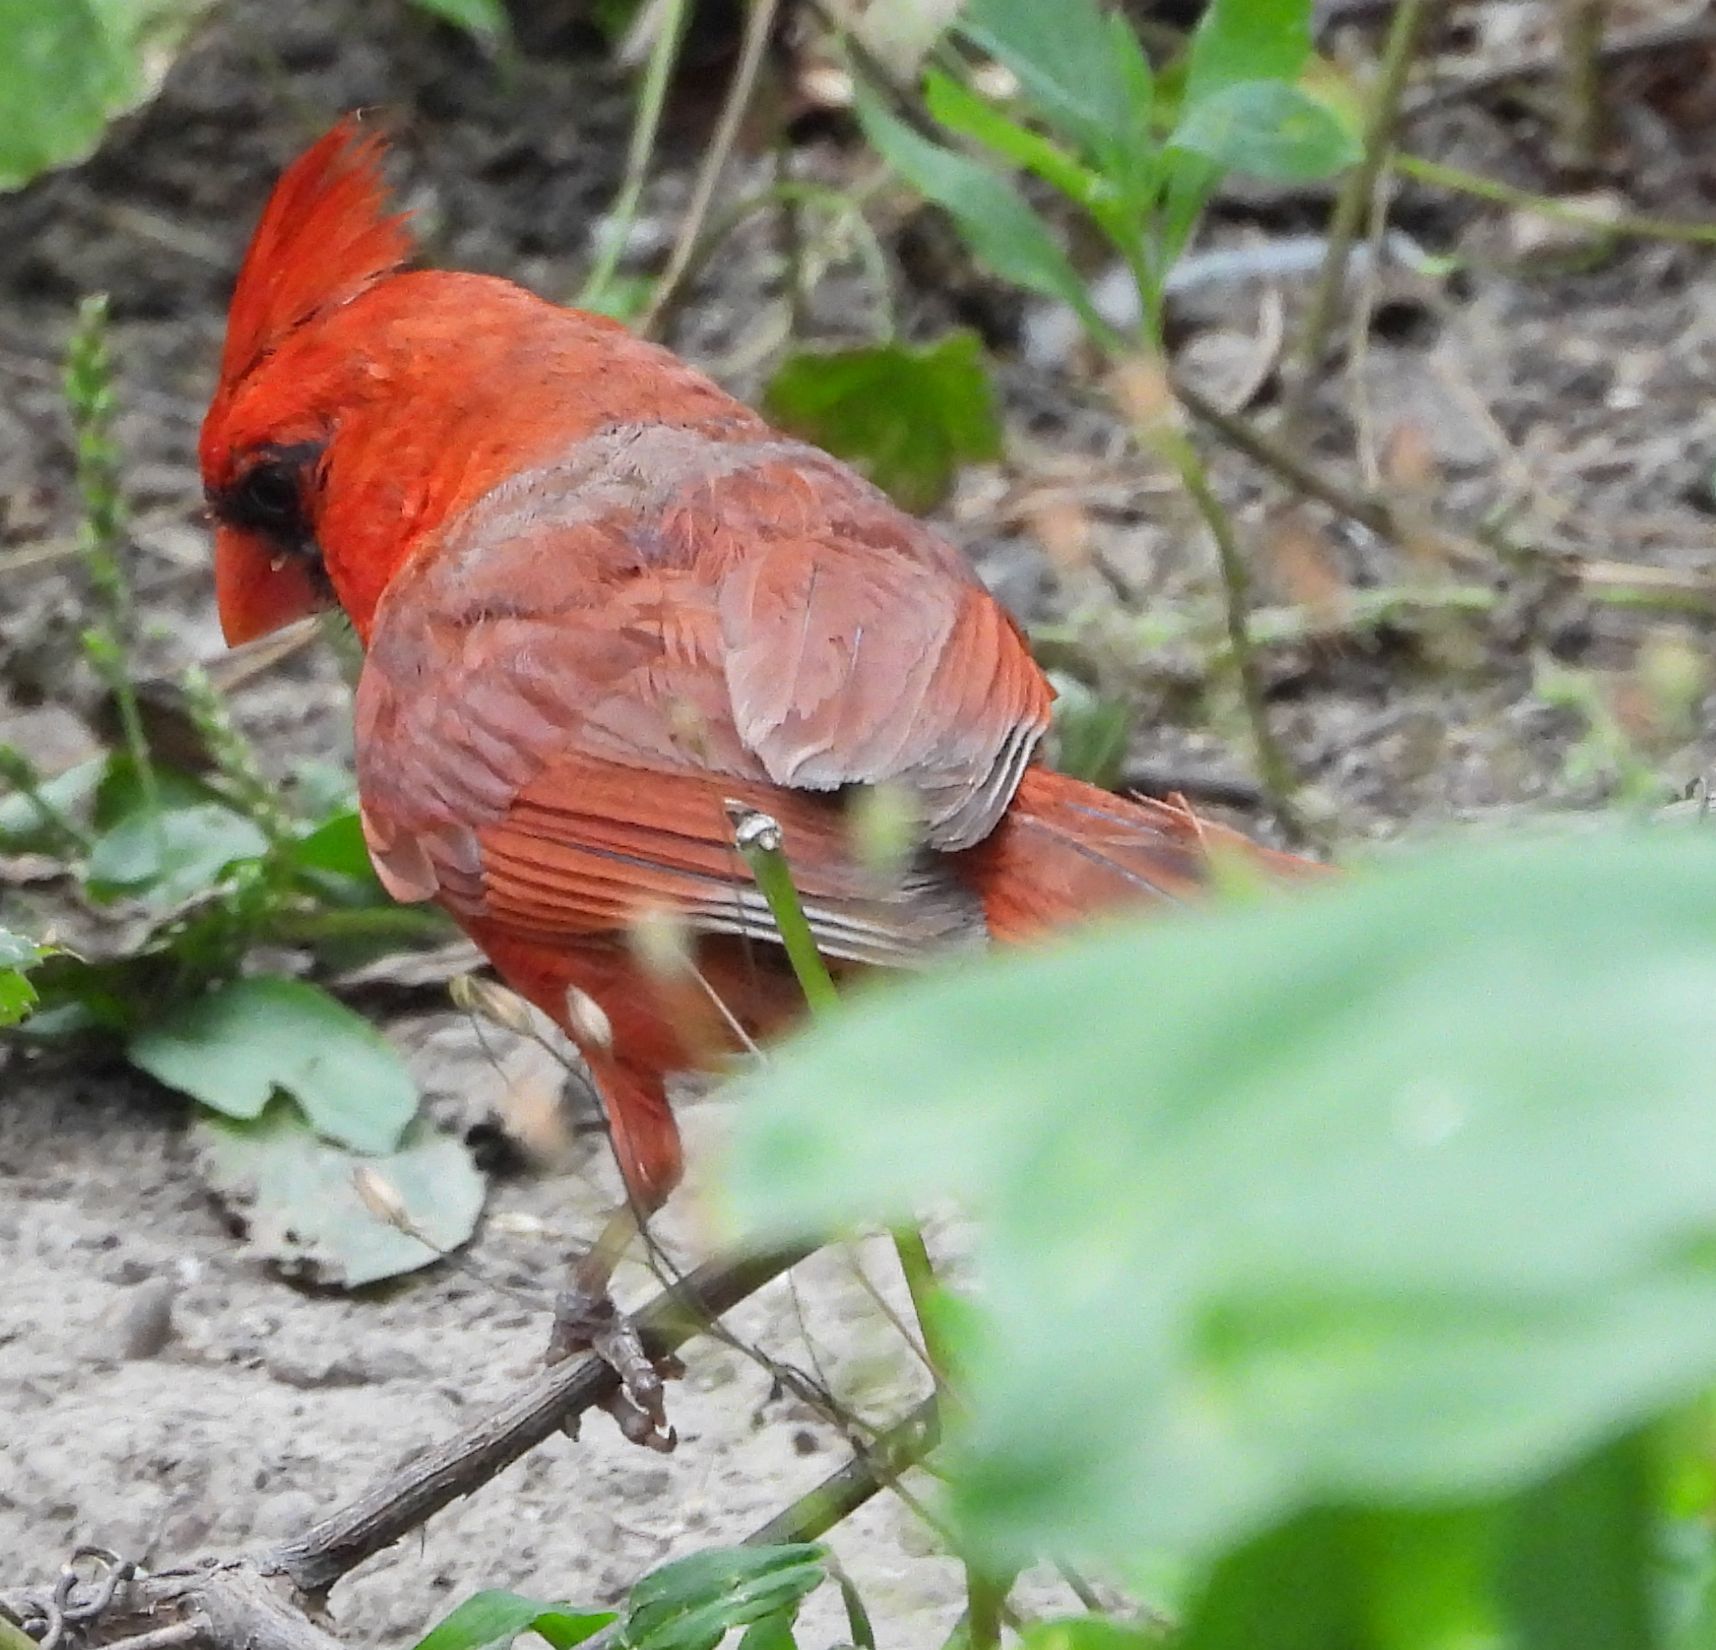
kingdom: Animalia
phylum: Chordata
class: Aves
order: Passeriformes
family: Cardinalidae
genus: Cardinalis
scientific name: Cardinalis cardinalis
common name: Northern cardinal
